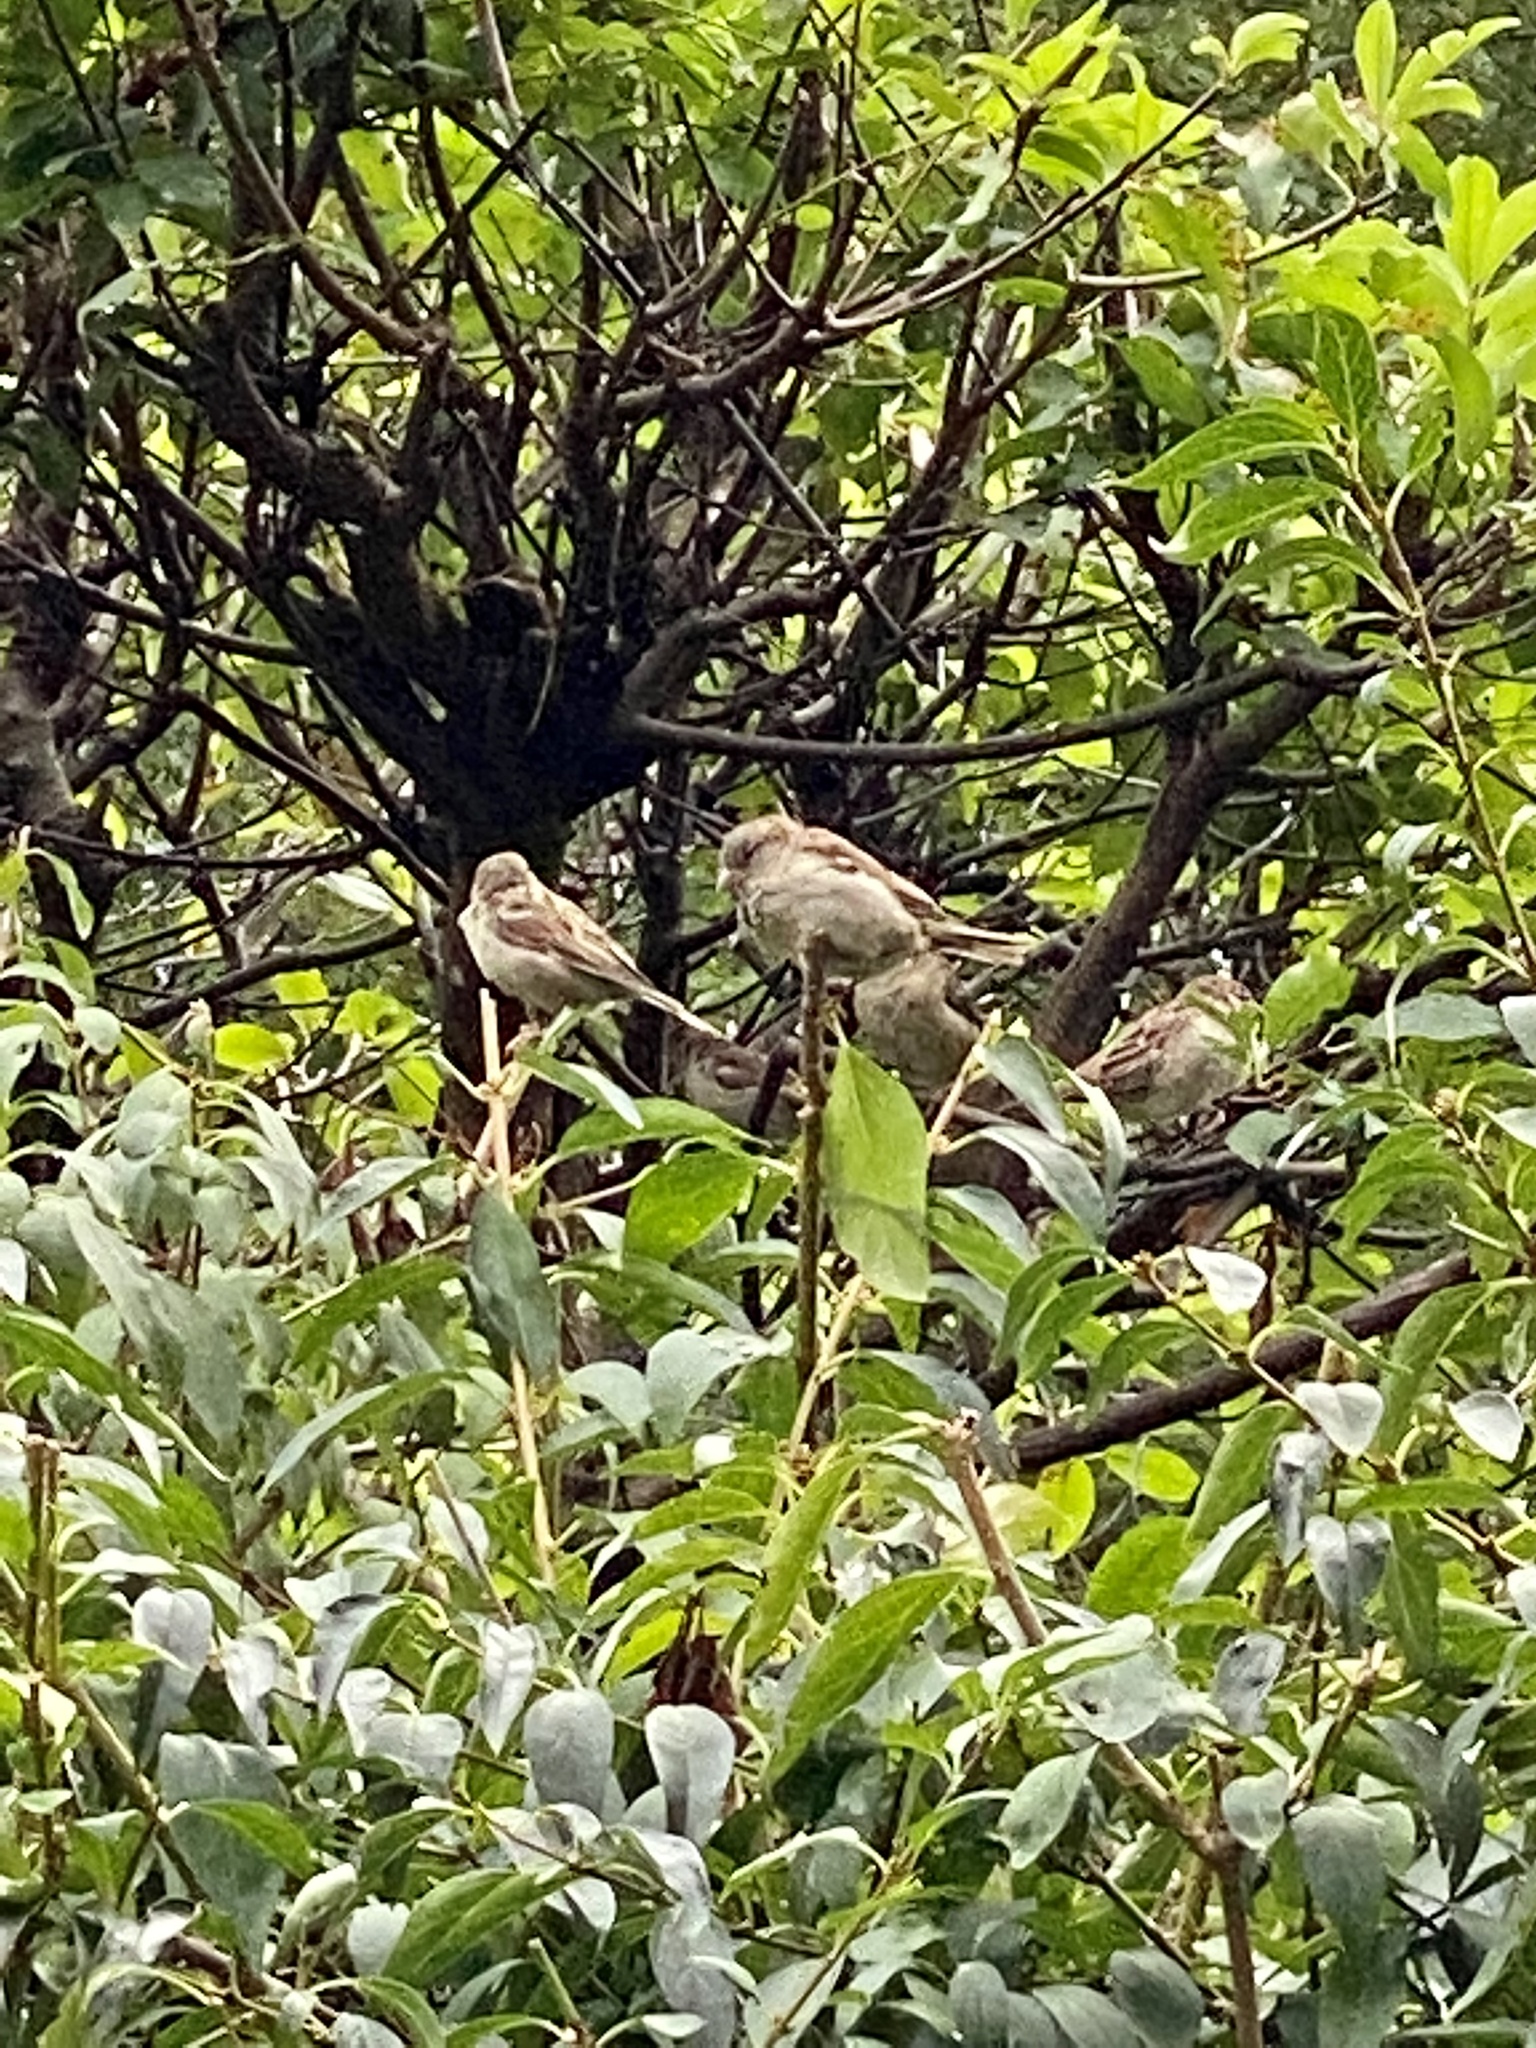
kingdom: Animalia
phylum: Chordata
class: Aves
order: Passeriformes
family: Passeridae
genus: Passer
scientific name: Passer domesticus
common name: House sparrow
